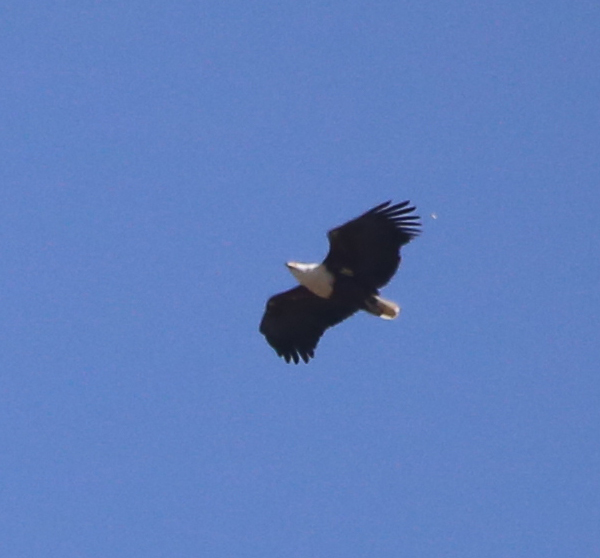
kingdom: Animalia
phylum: Chordata
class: Aves
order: Accipitriformes
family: Accipitridae
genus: Haliaeetus
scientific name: Haliaeetus vocifer
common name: African fish eagle
